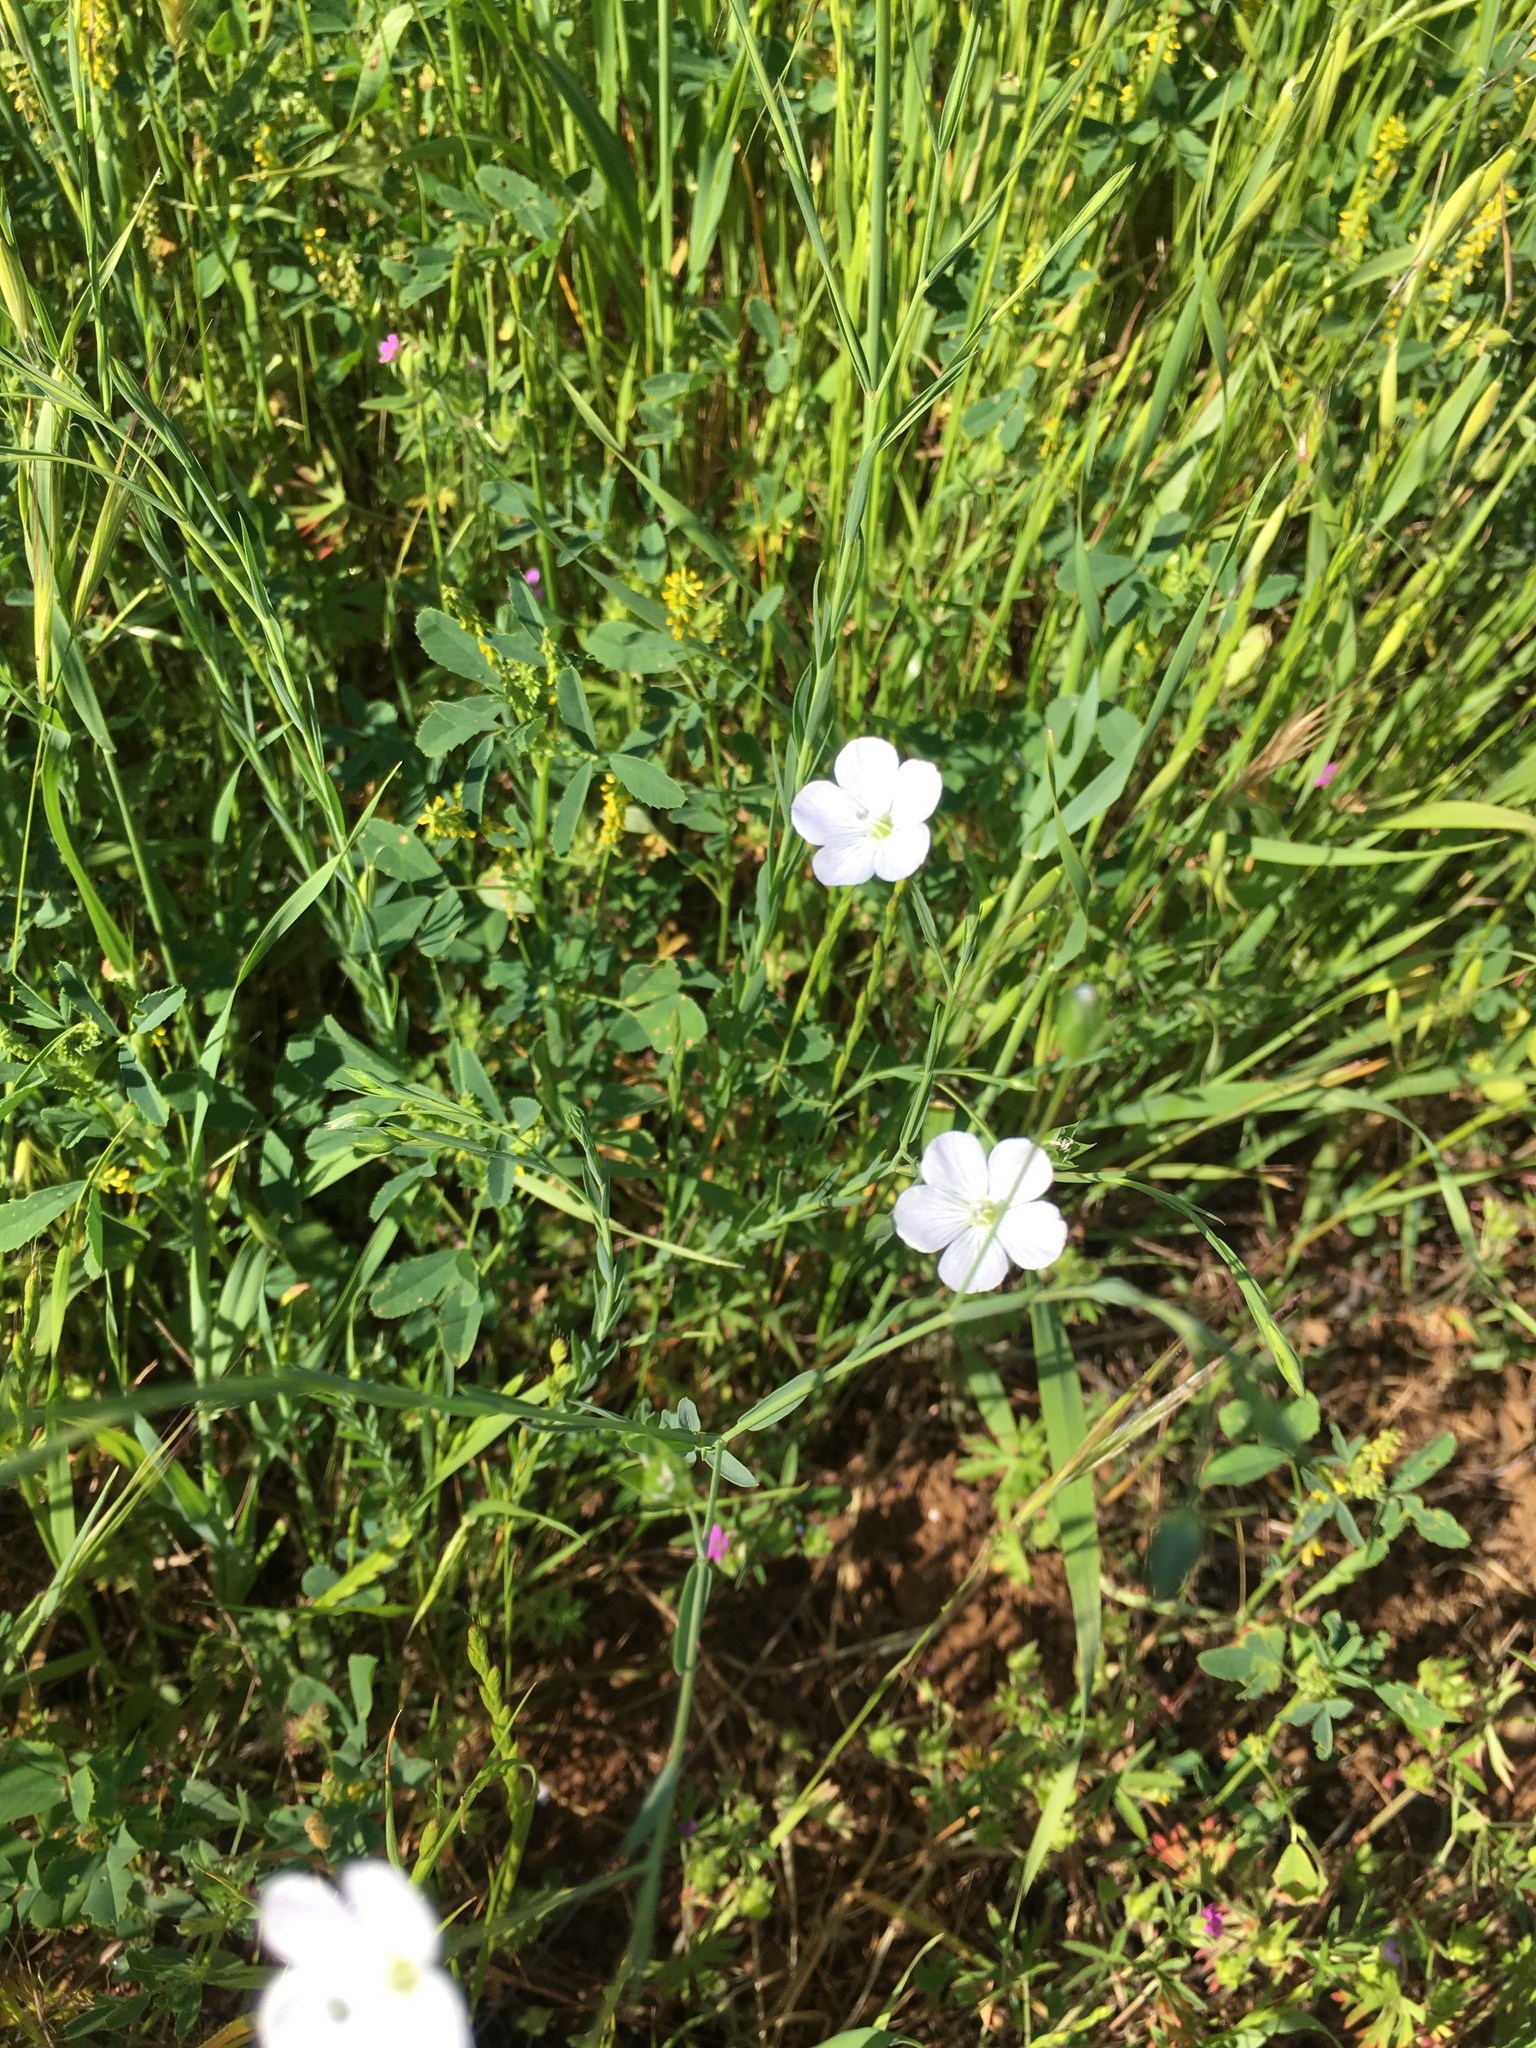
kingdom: Plantae
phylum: Tracheophyta
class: Magnoliopsida
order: Malpighiales
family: Linaceae
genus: Linum
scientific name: Linum bienne
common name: Pale flax
